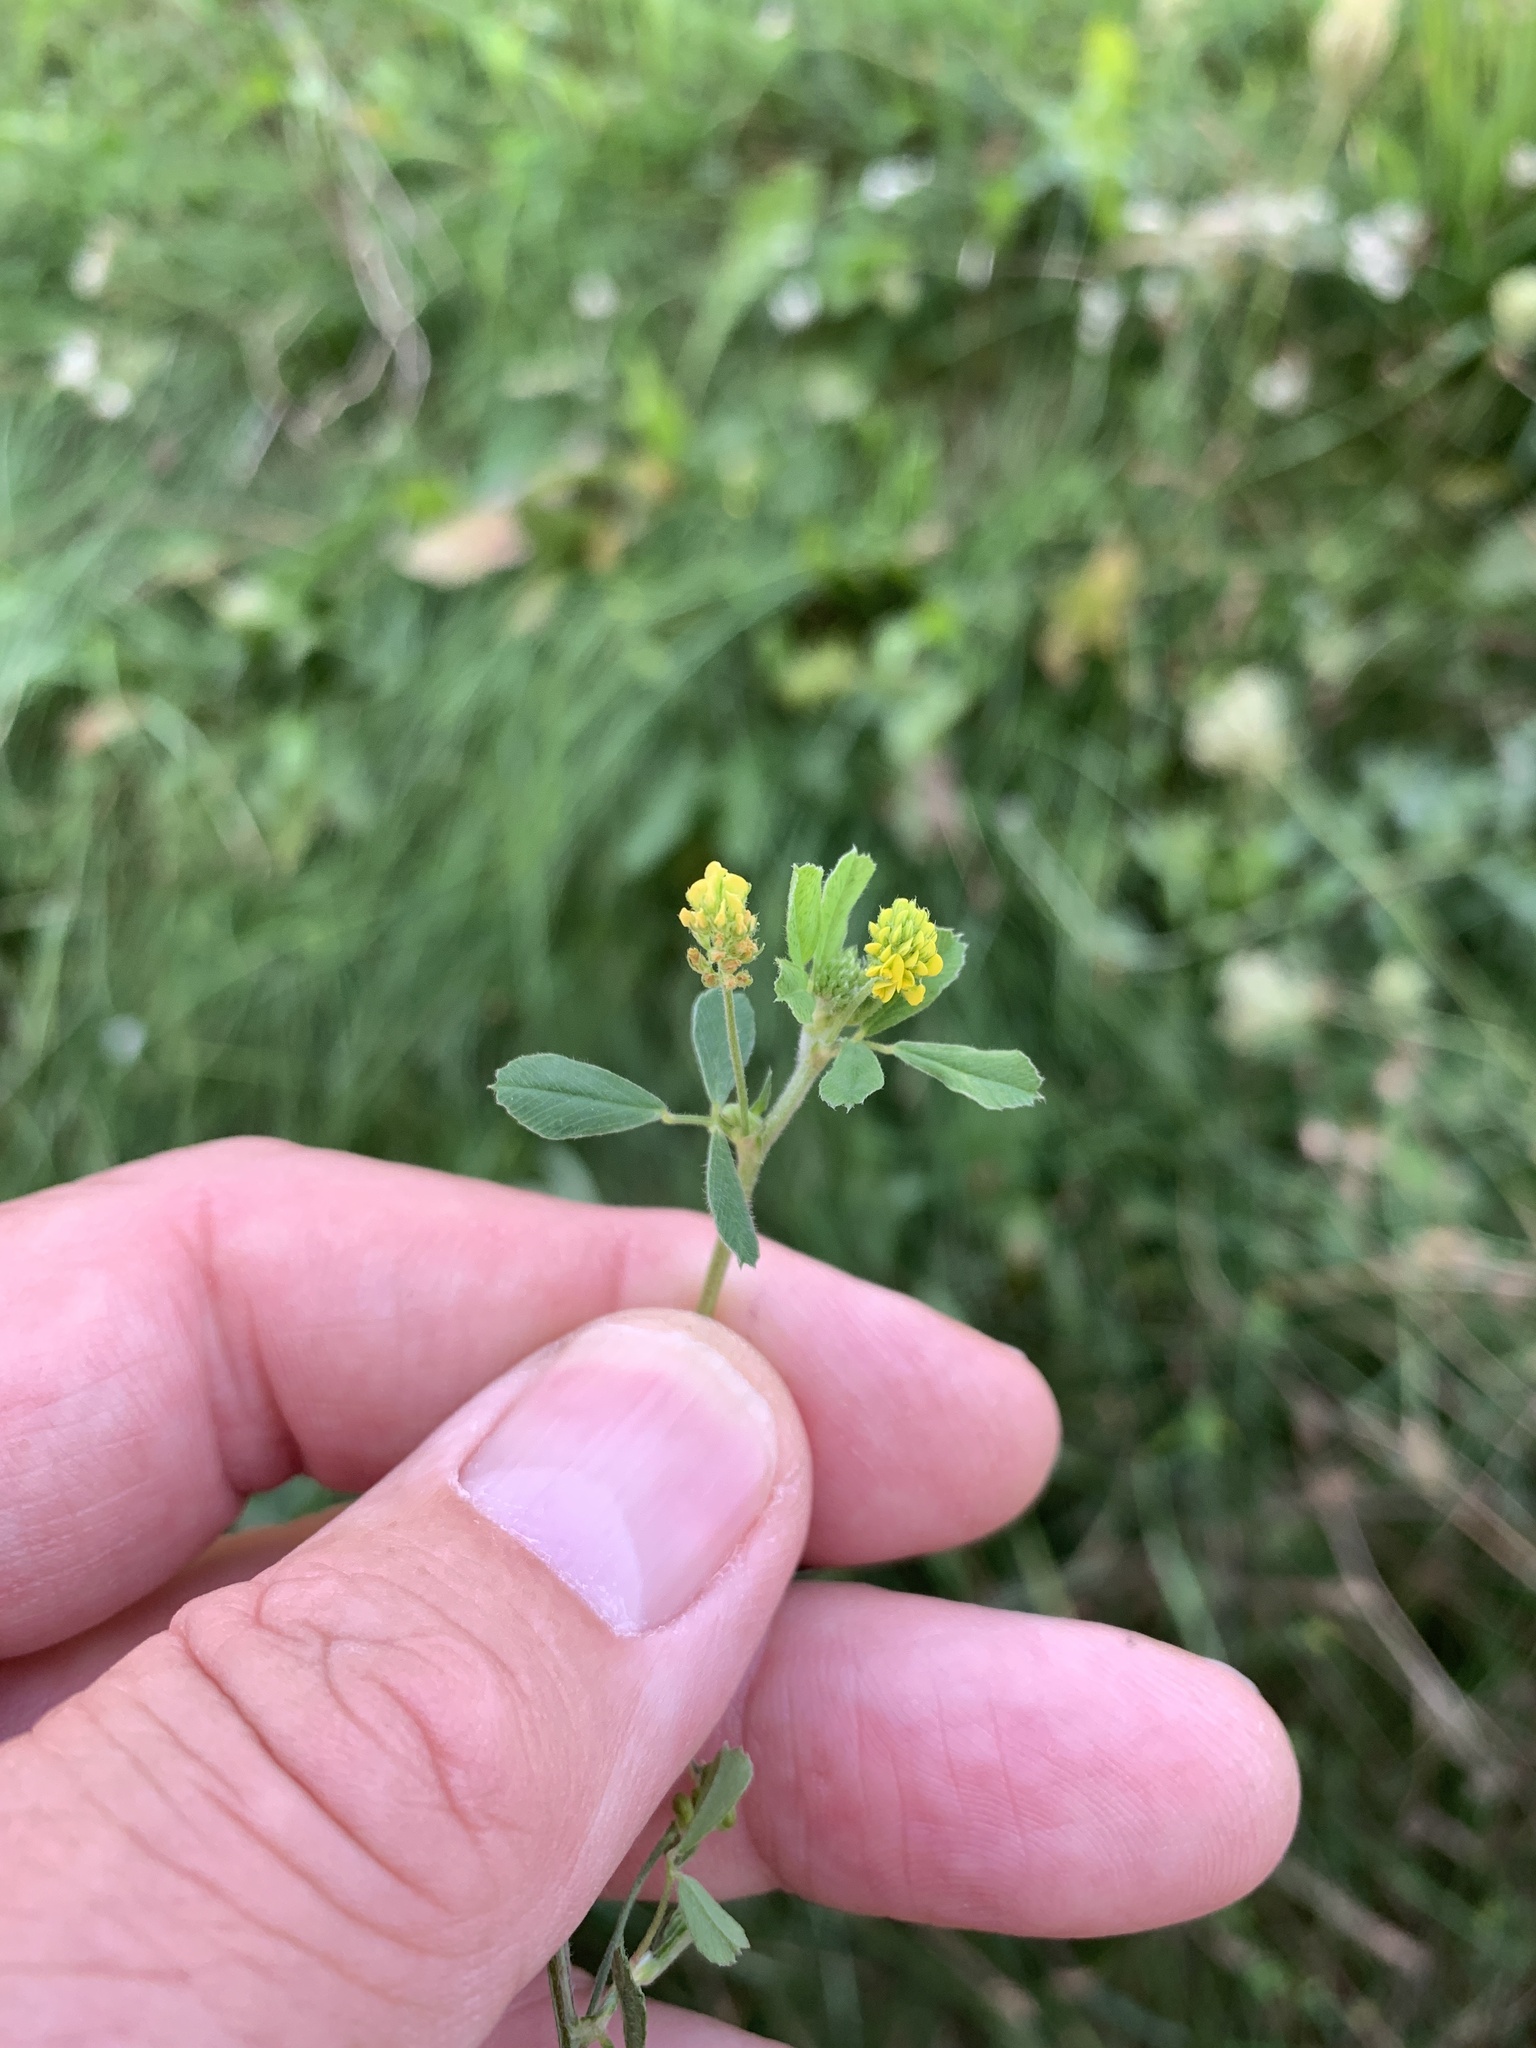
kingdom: Plantae
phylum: Tracheophyta
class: Magnoliopsida
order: Fabales
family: Fabaceae
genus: Medicago
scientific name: Medicago lupulina
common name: Black medick
